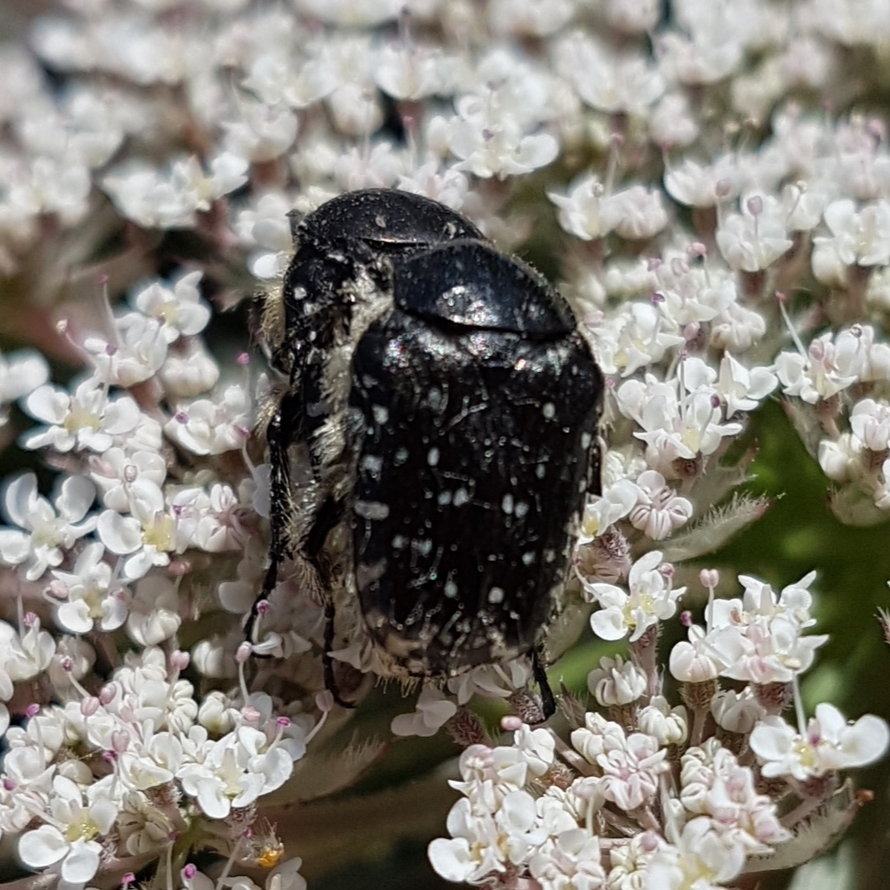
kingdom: Animalia
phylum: Arthropoda
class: Insecta
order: Coleoptera
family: Scarabaeidae
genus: Oxythyrea
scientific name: Oxythyrea funesta
